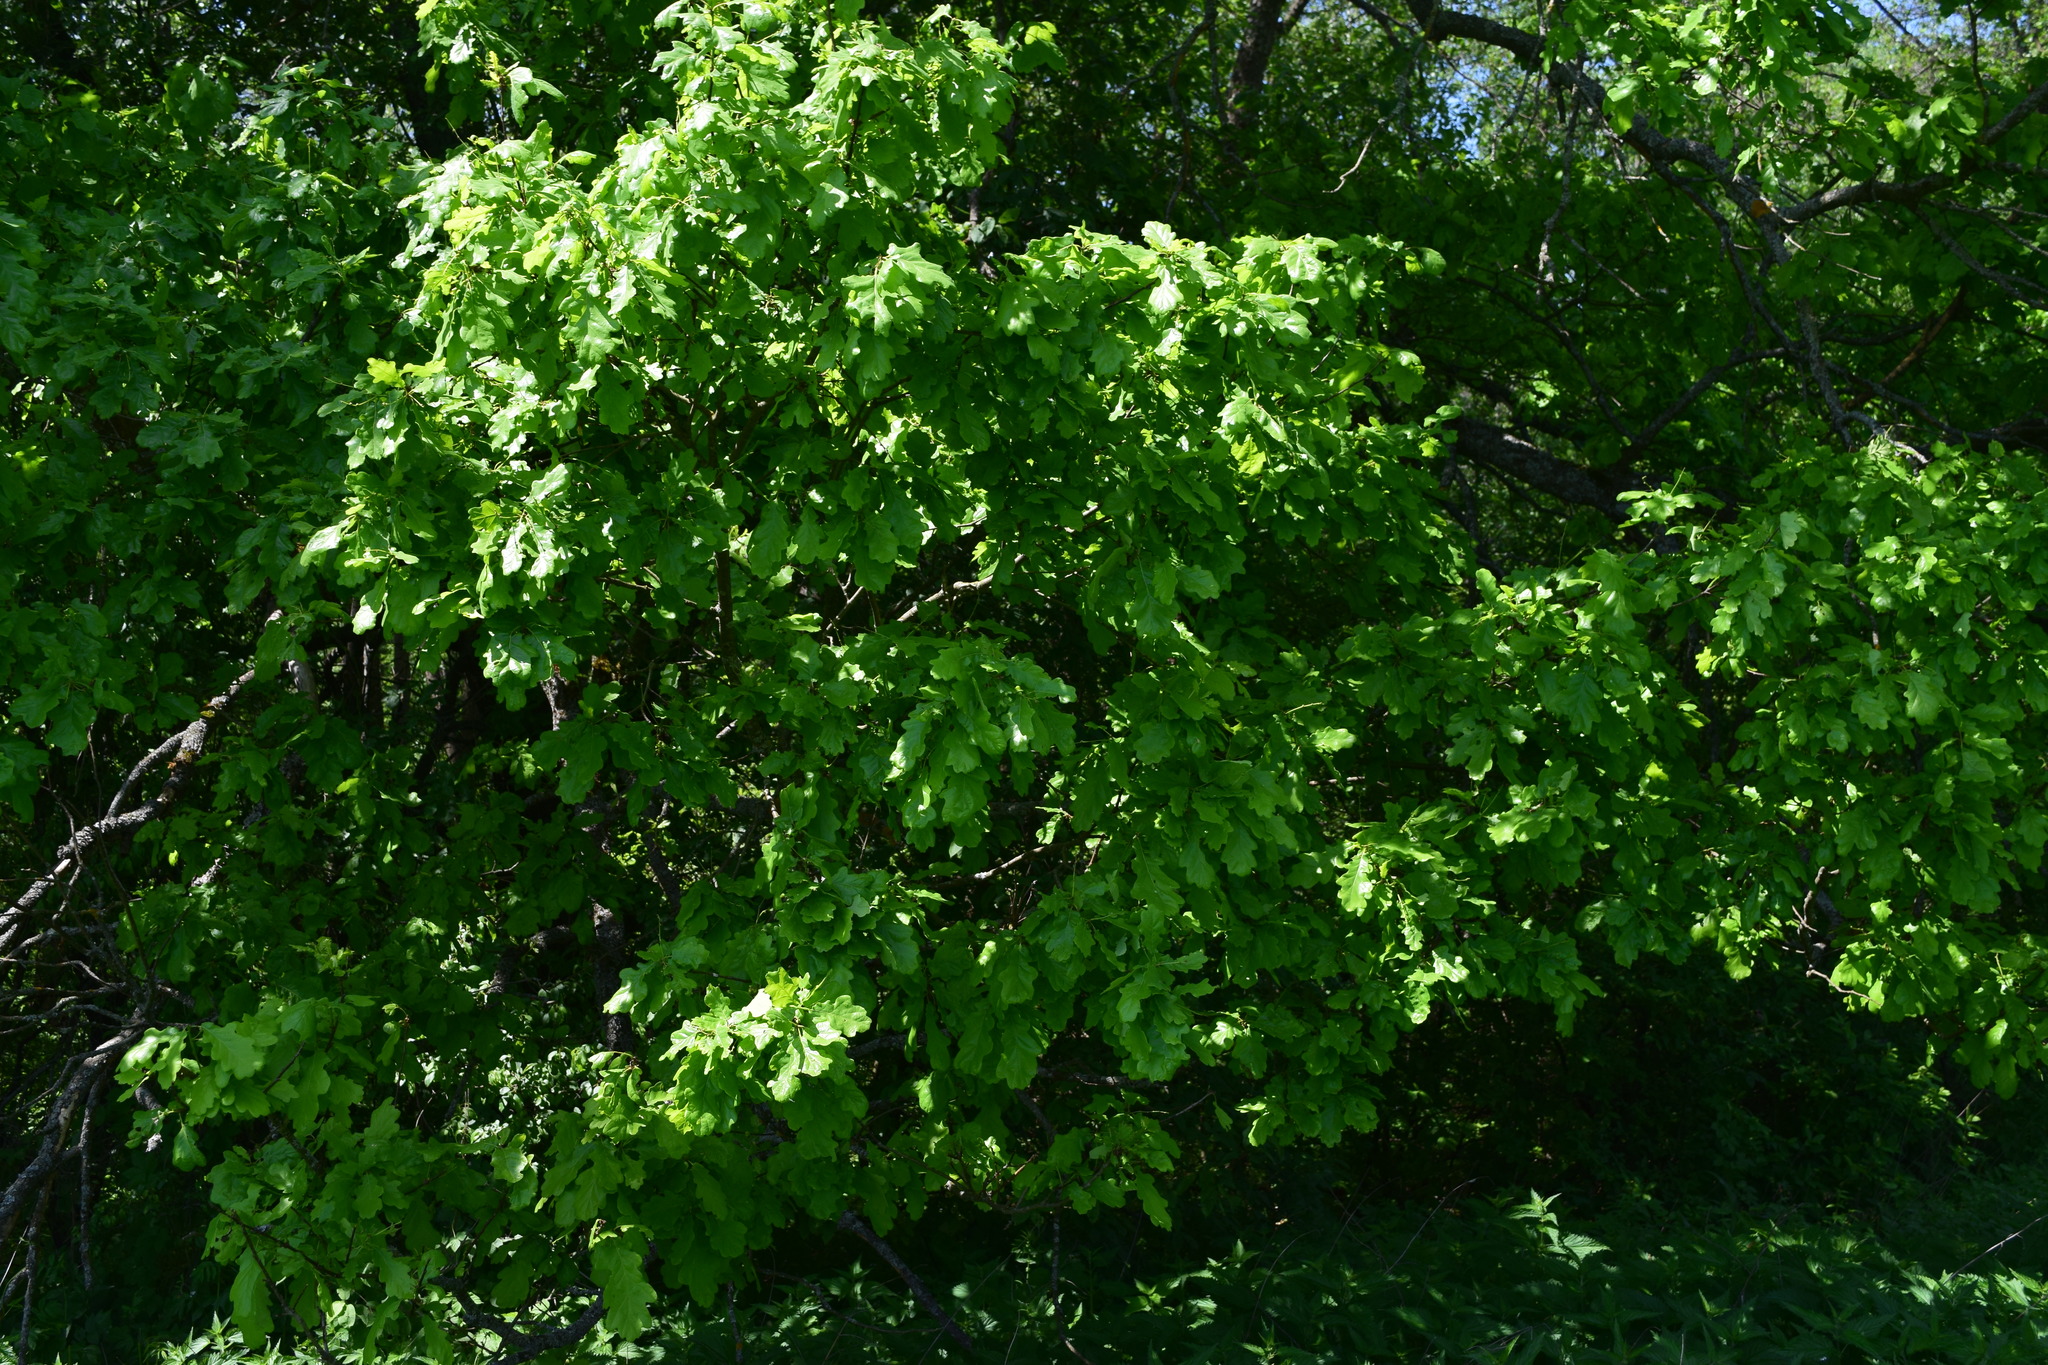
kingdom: Plantae
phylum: Tracheophyta
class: Magnoliopsida
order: Fagales
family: Fagaceae
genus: Quercus
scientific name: Quercus robur
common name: Pedunculate oak
